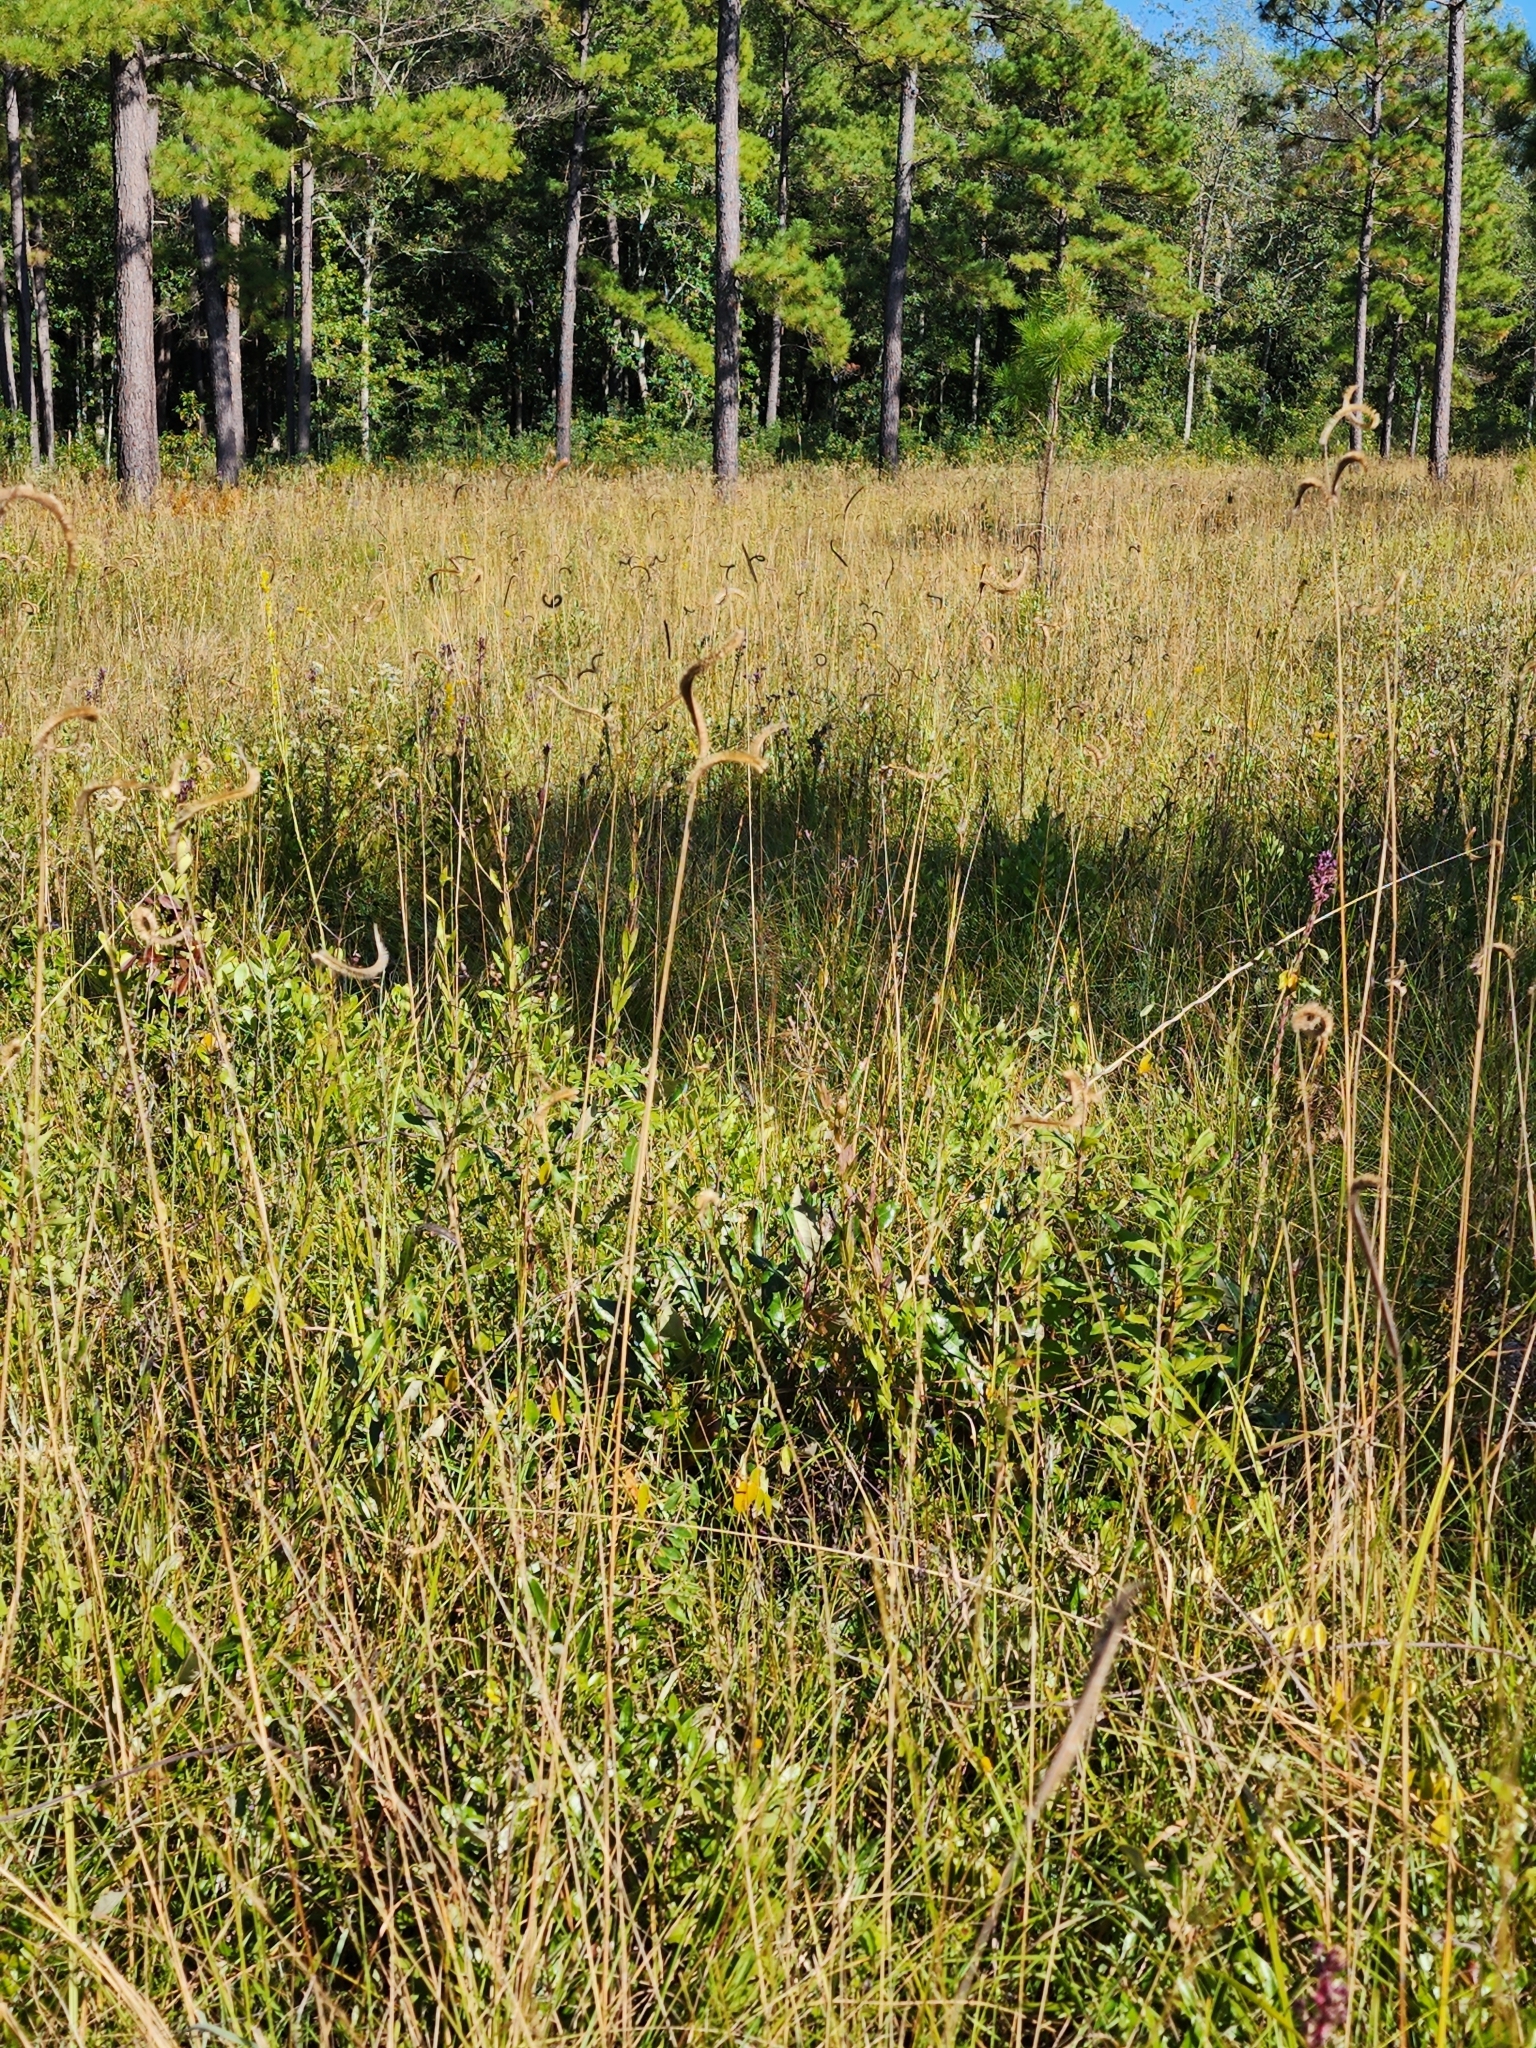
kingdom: Plantae
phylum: Tracheophyta
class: Liliopsida
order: Poales
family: Poaceae
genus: Ctenium
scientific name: Ctenium aromaticum
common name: Toothache grass
